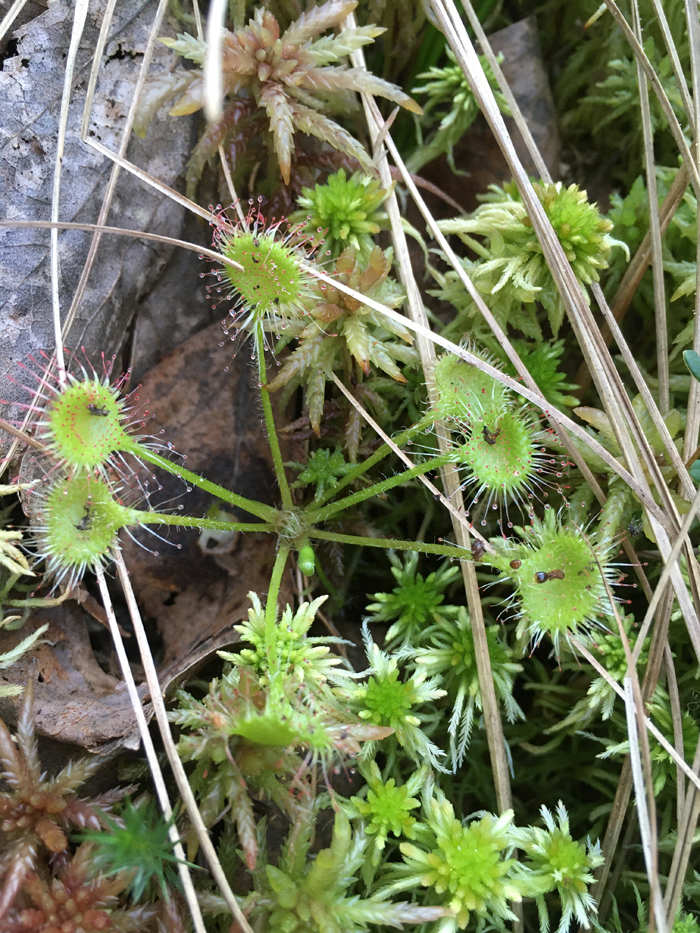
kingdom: Plantae
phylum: Tracheophyta
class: Magnoliopsida
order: Caryophyllales
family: Droseraceae
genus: Drosera
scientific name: Drosera obovata
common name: Ivan's paddle
